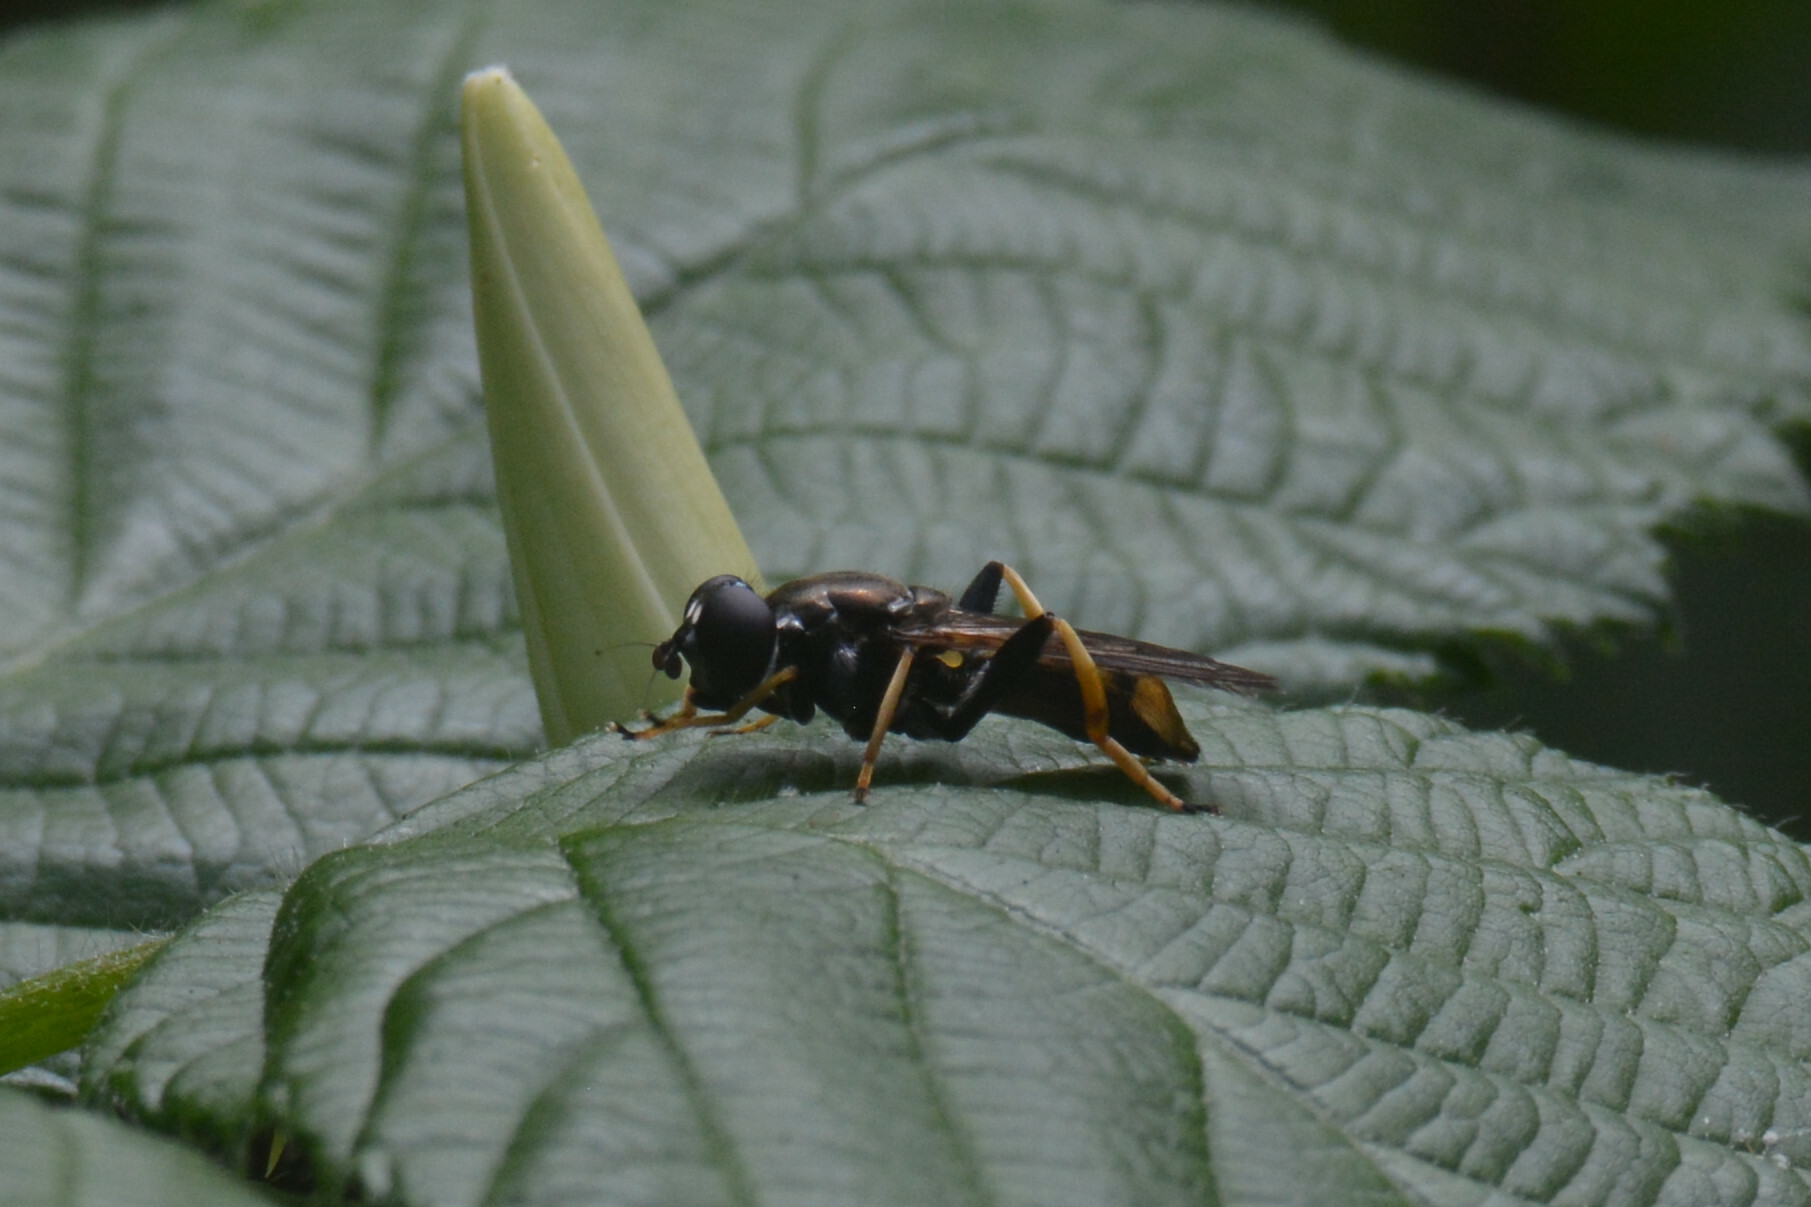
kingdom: Animalia
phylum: Arthropoda
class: Insecta
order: Diptera
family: Syrphidae
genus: Xylota
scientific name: Xylota xanthocnema
